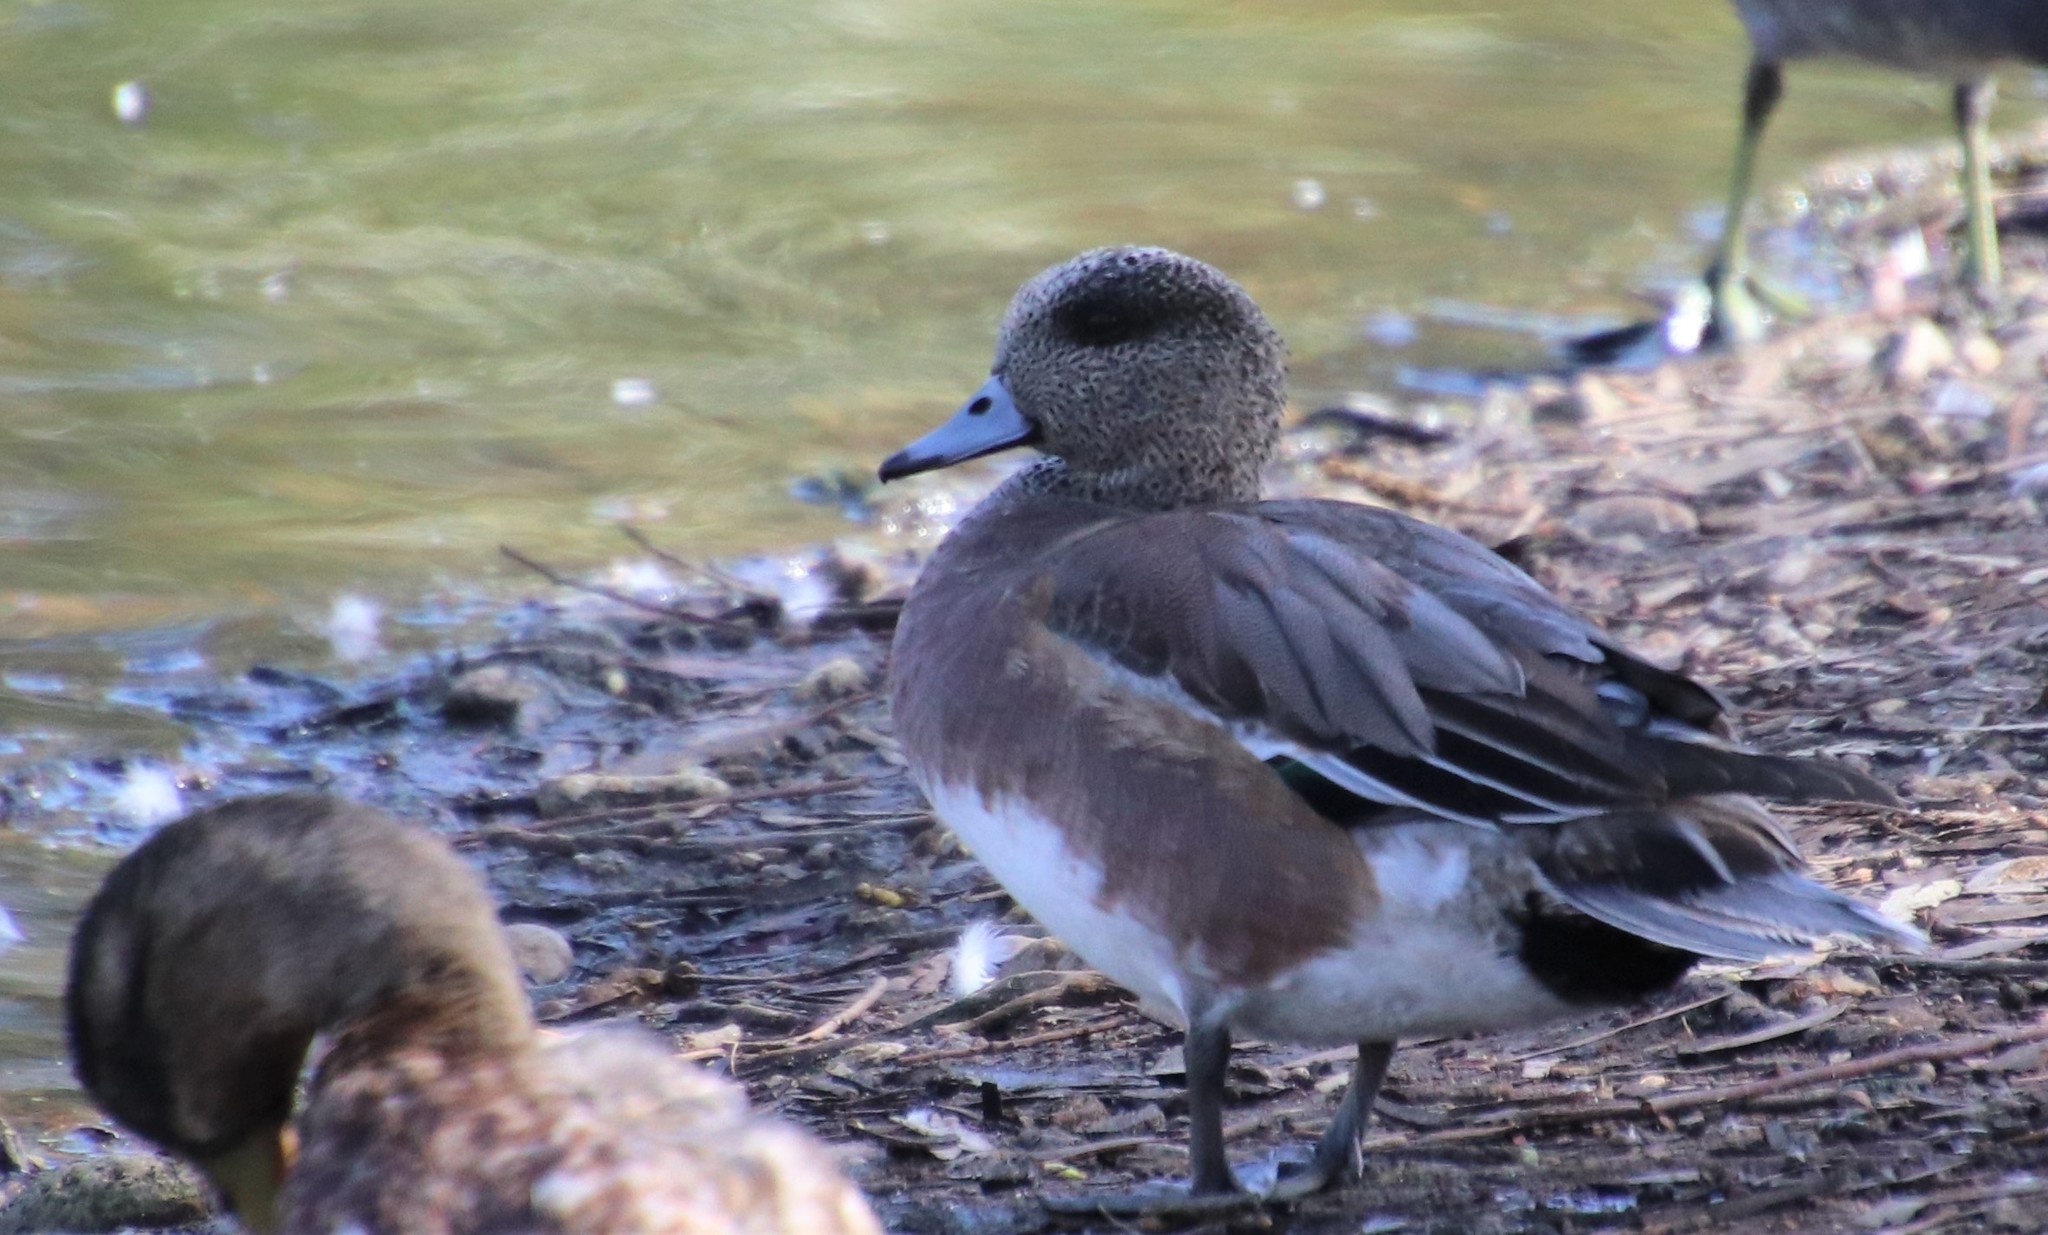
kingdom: Animalia
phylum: Chordata
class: Aves
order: Anseriformes
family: Anatidae
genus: Mareca
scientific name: Mareca americana
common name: American wigeon
